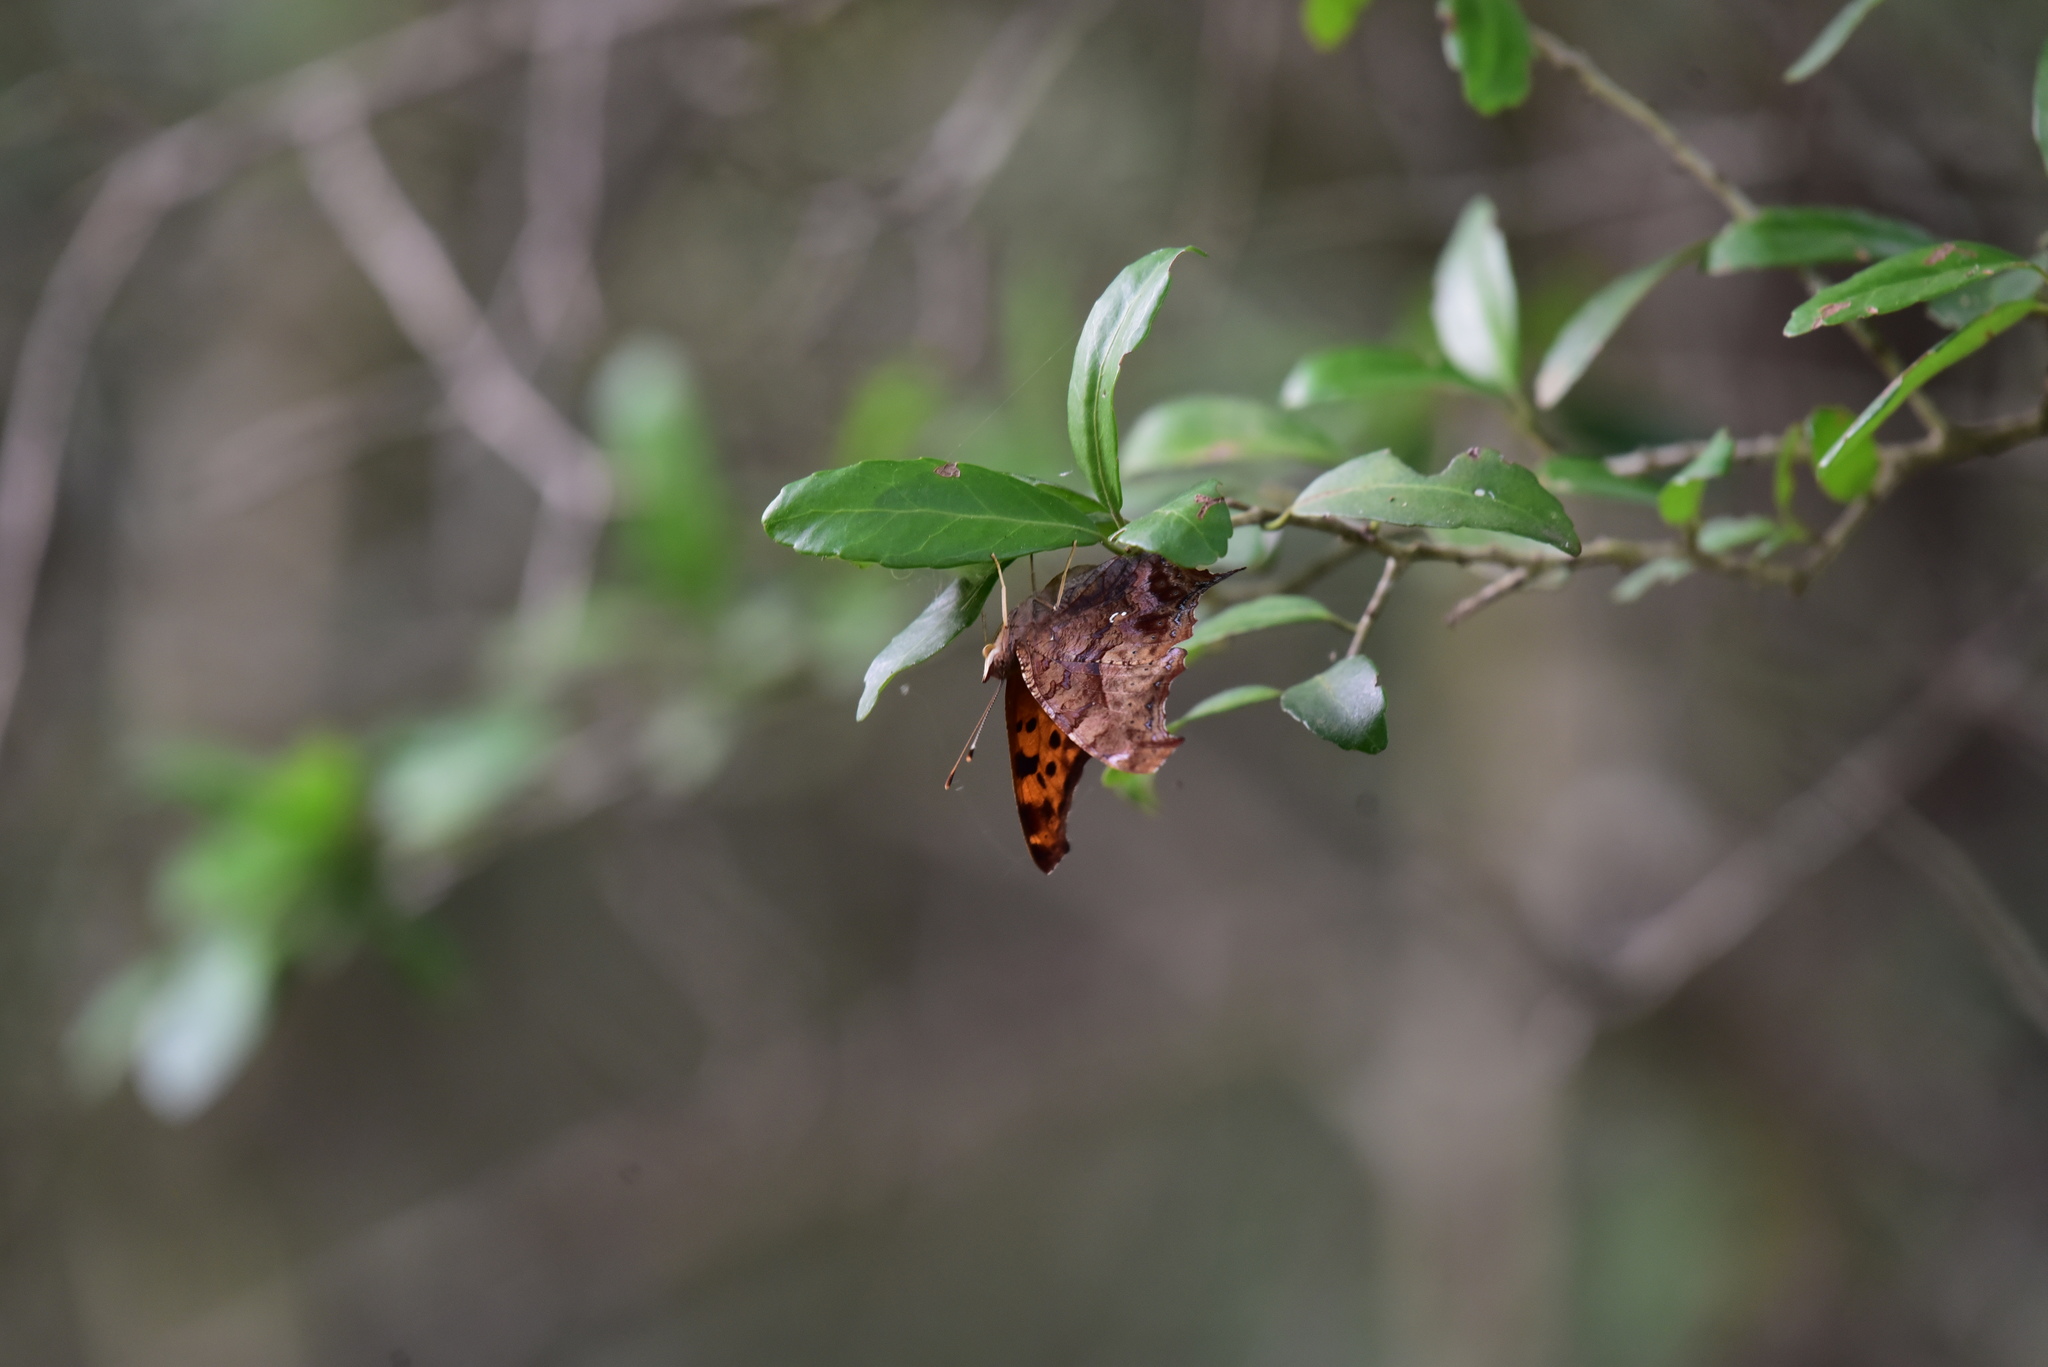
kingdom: Animalia
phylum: Arthropoda
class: Insecta
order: Lepidoptera
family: Nymphalidae
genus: Polygonia
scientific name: Polygonia interrogationis
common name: Question mark
